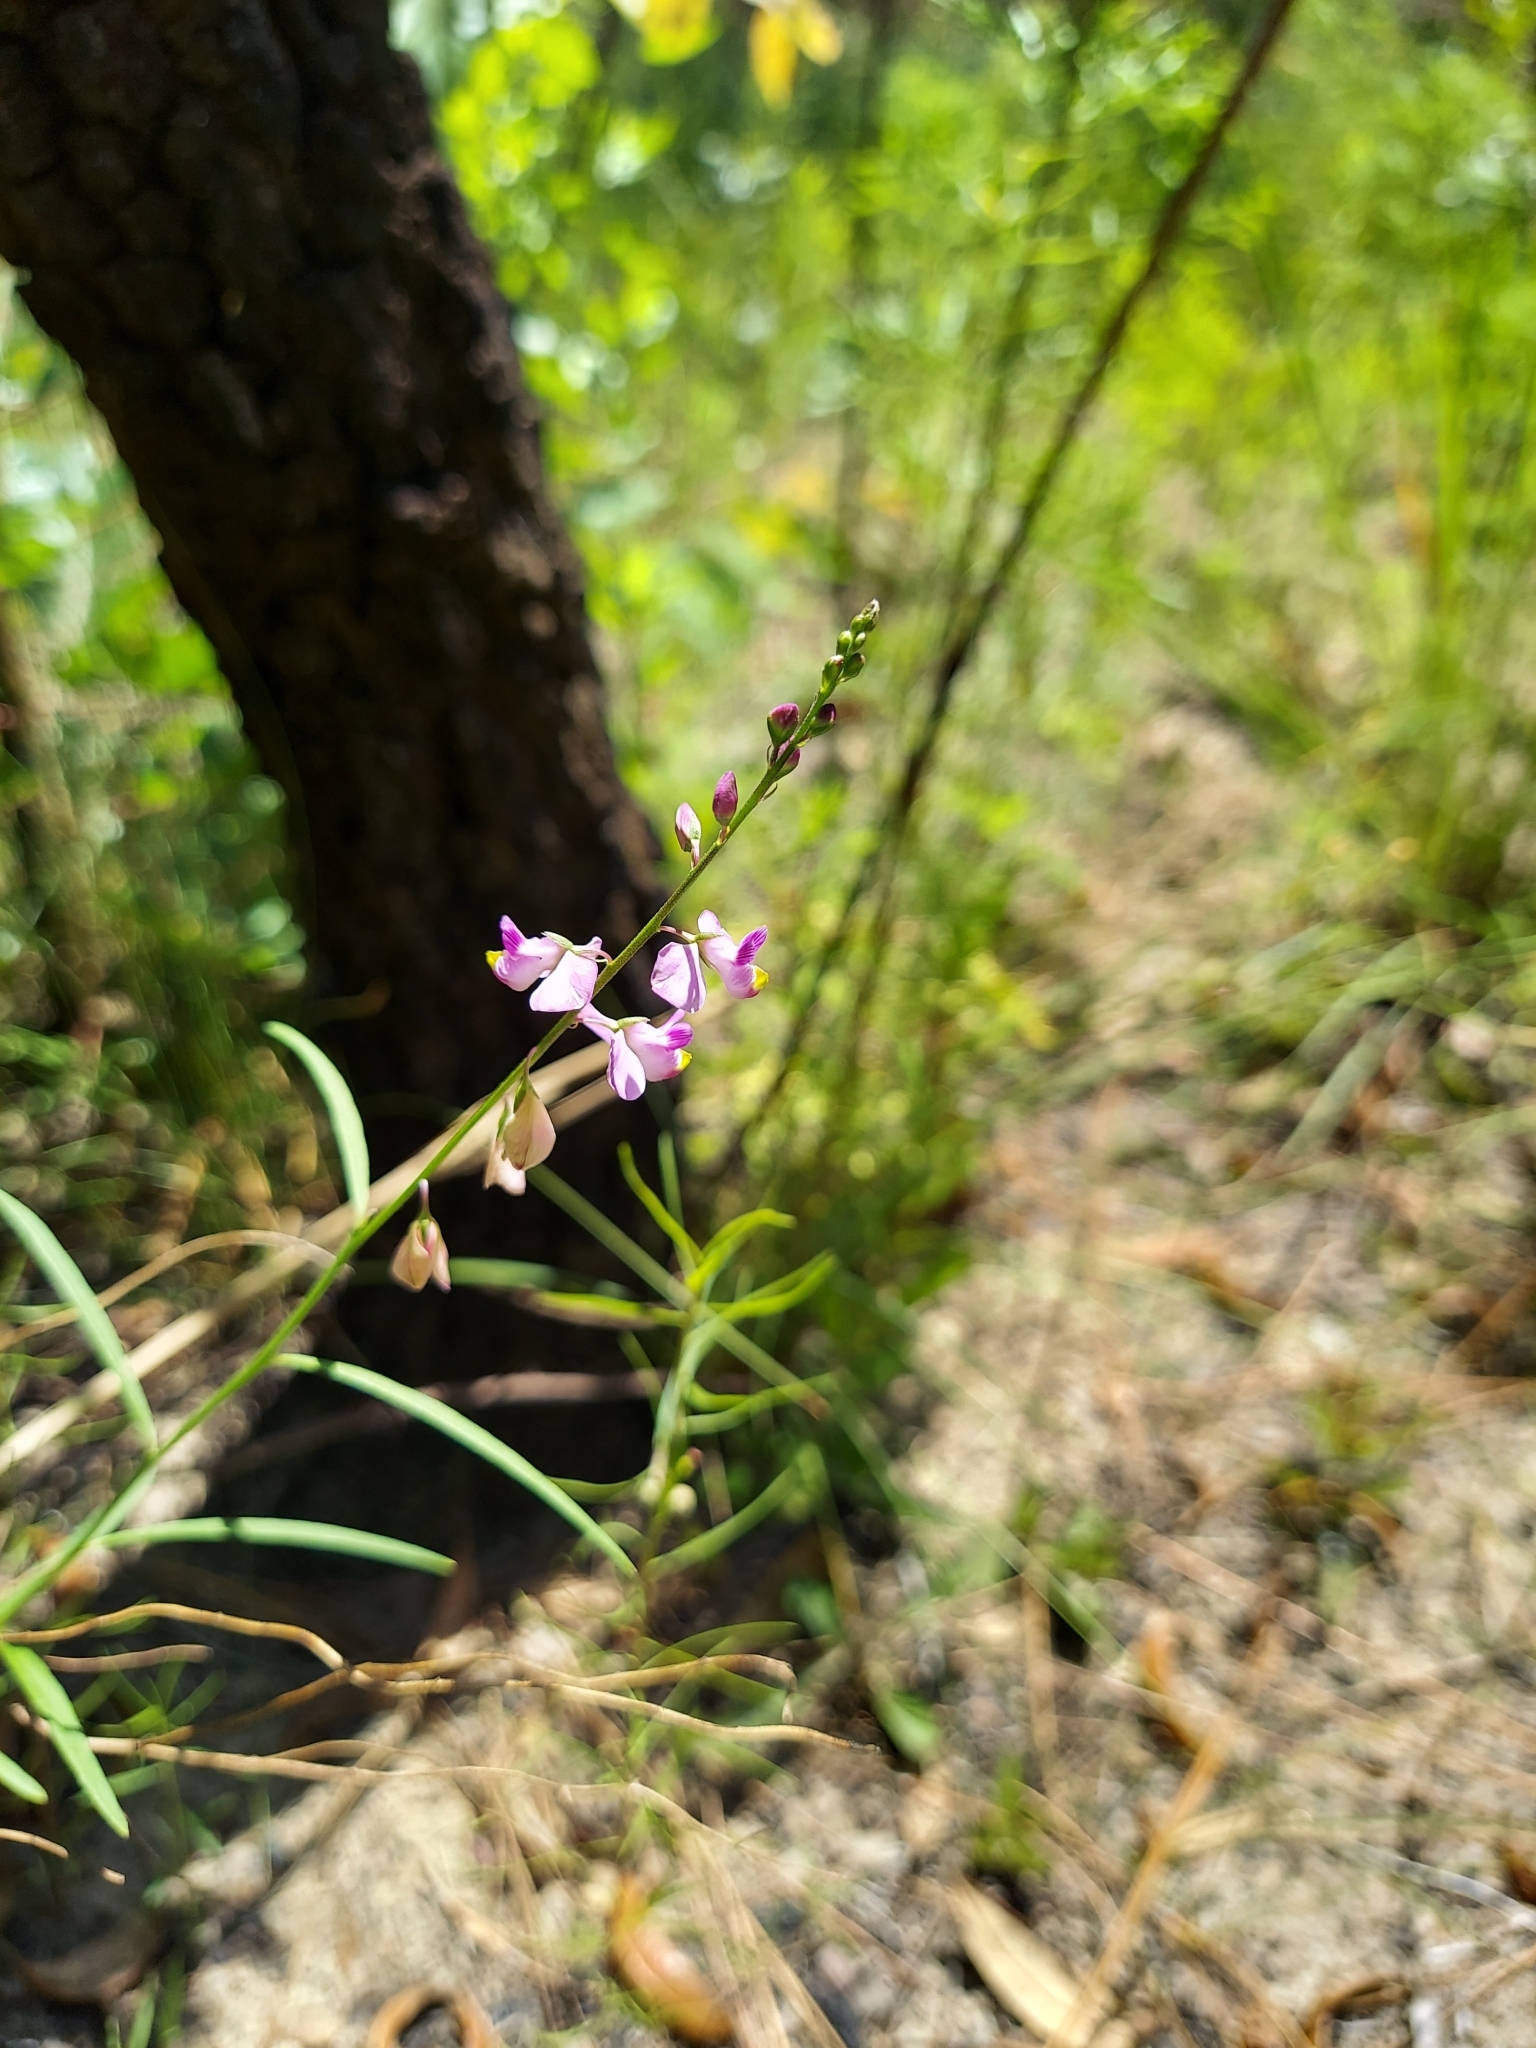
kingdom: Plantae
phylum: Tracheophyta
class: Magnoliopsida
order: Fabales
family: Polygalaceae
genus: Asemeia
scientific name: Asemeia grandiflora
